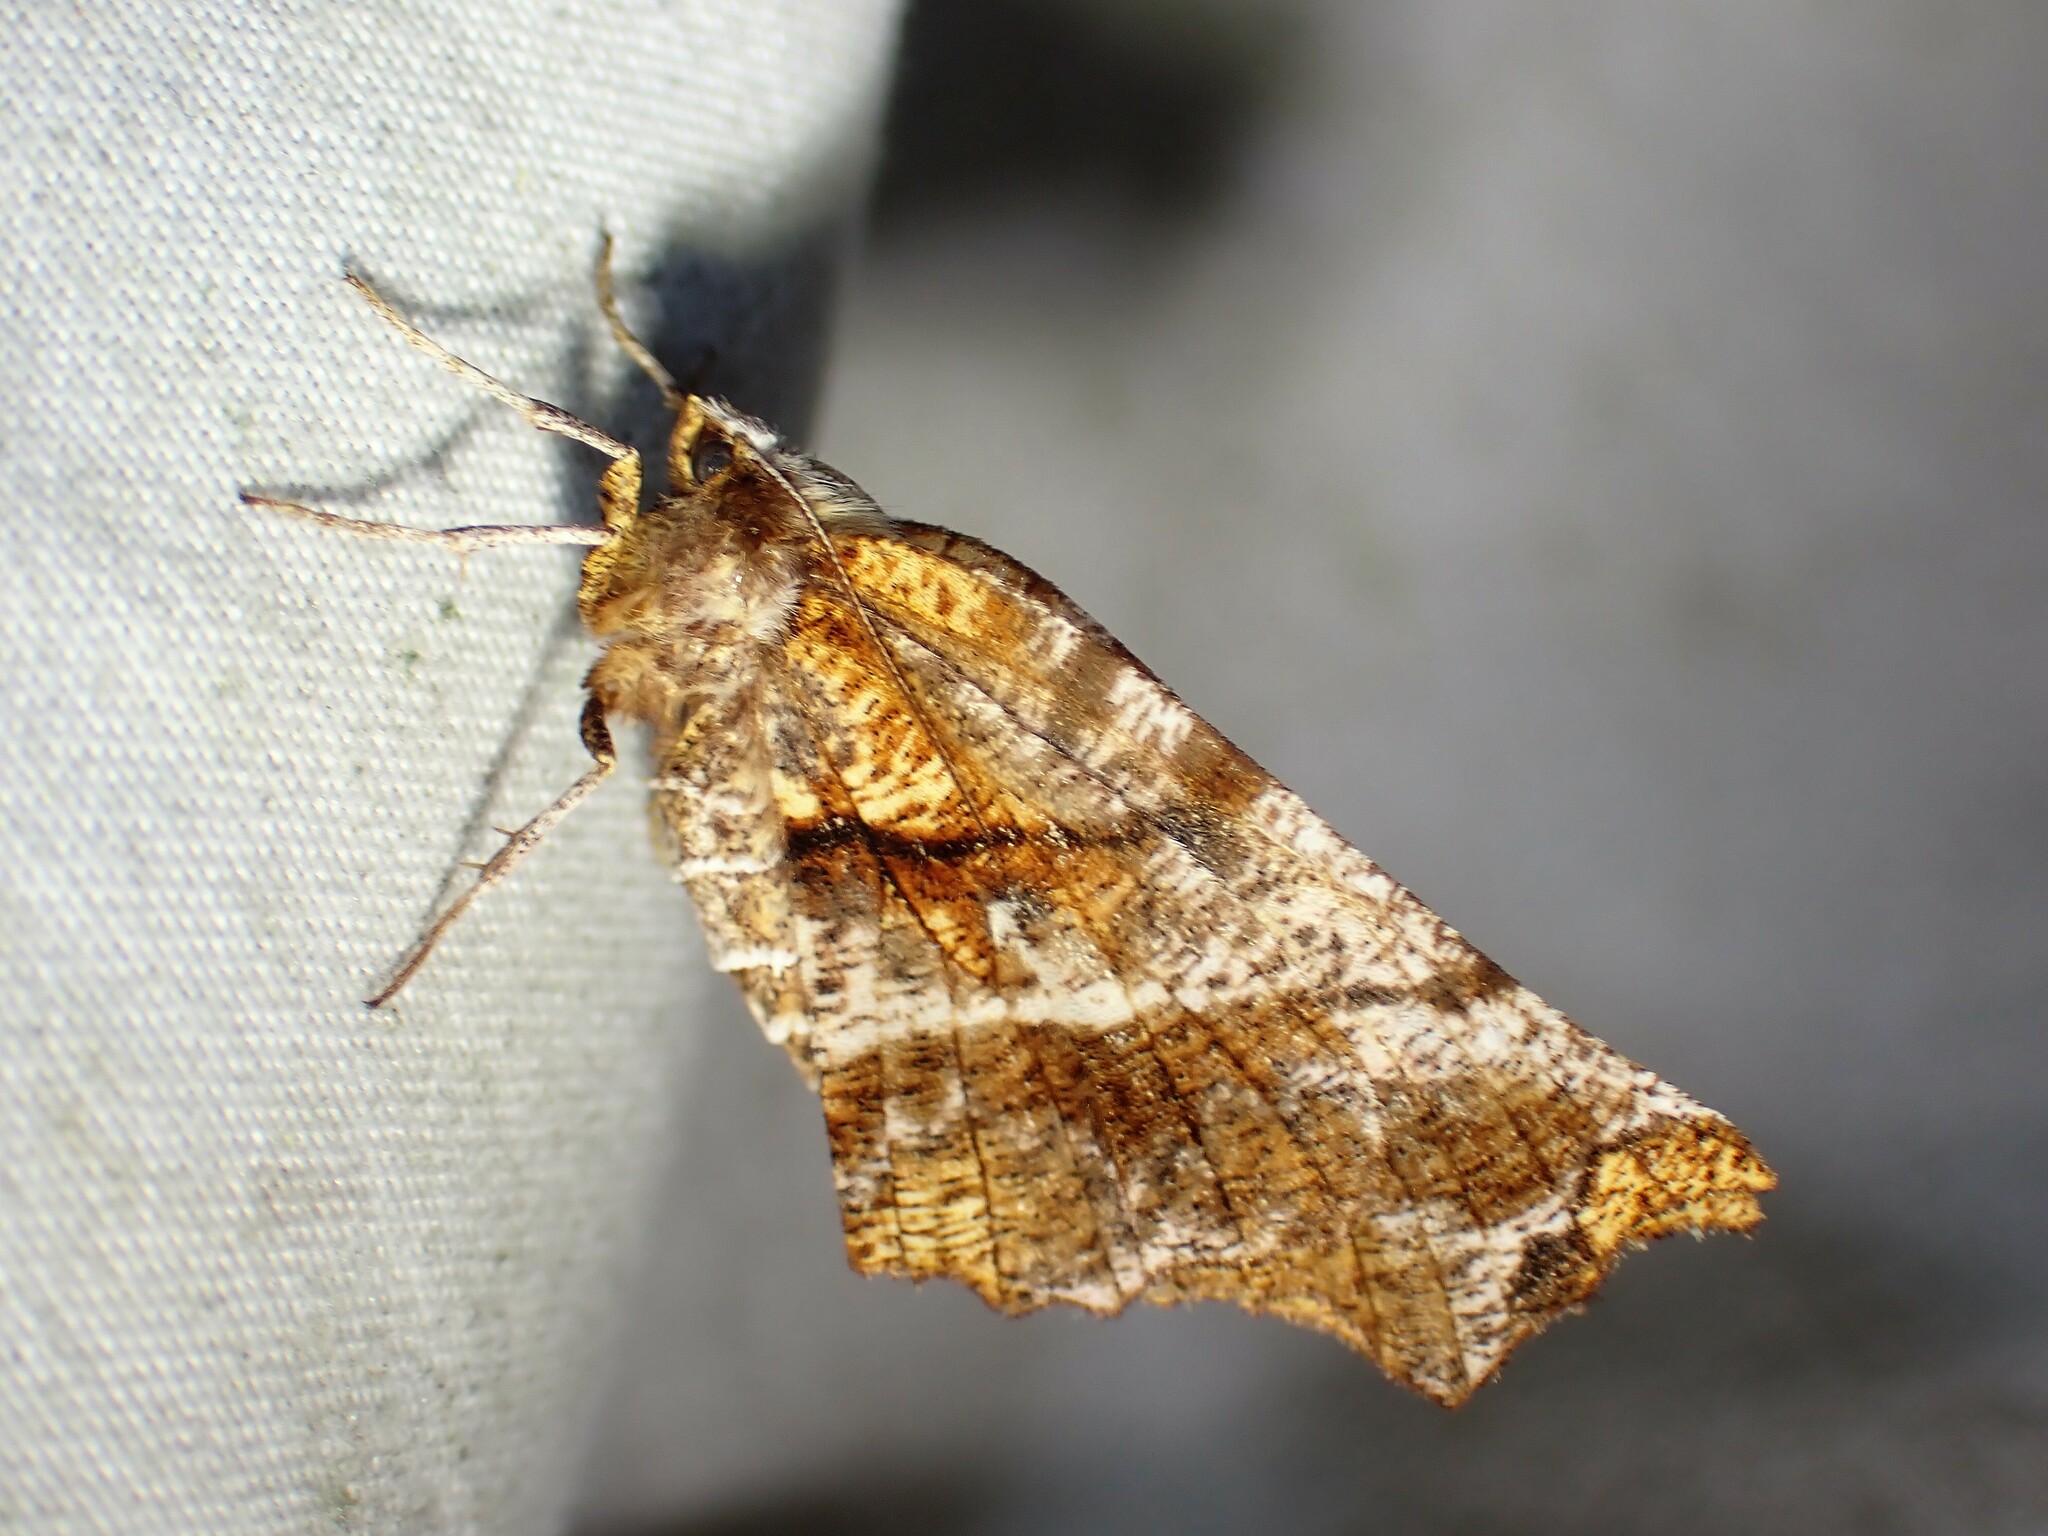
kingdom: Animalia
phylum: Arthropoda
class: Insecta
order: Lepidoptera
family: Geometridae
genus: Selenia
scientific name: Selenia alciphearia
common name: Brown-tipped thorn
